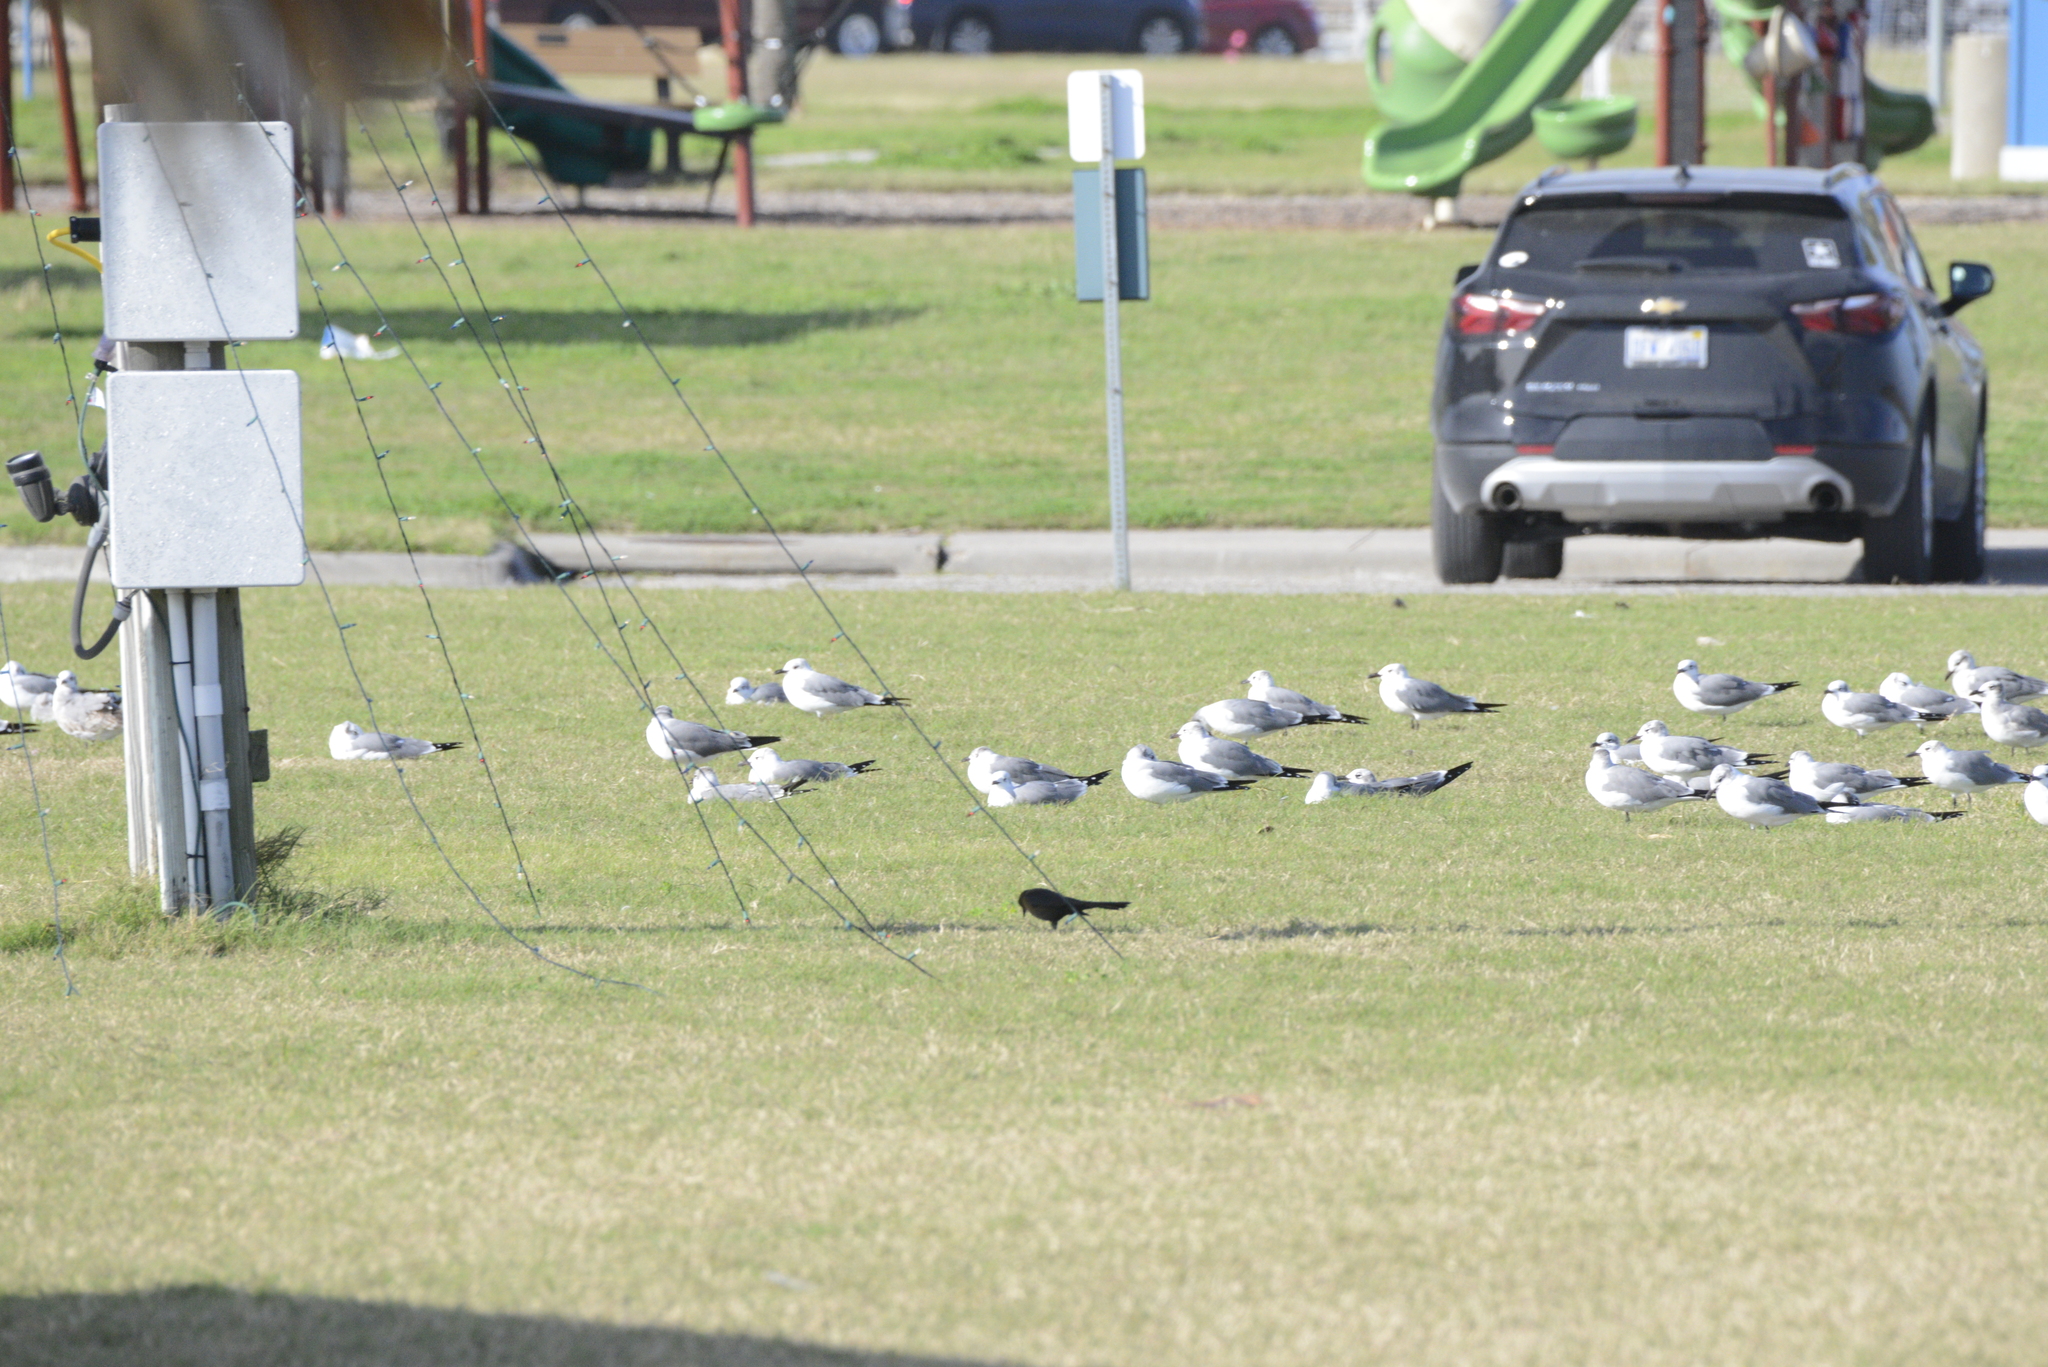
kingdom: Animalia
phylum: Chordata
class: Aves
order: Charadriiformes
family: Laridae
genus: Leucophaeus
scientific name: Leucophaeus atricilla
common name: Laughing gull
